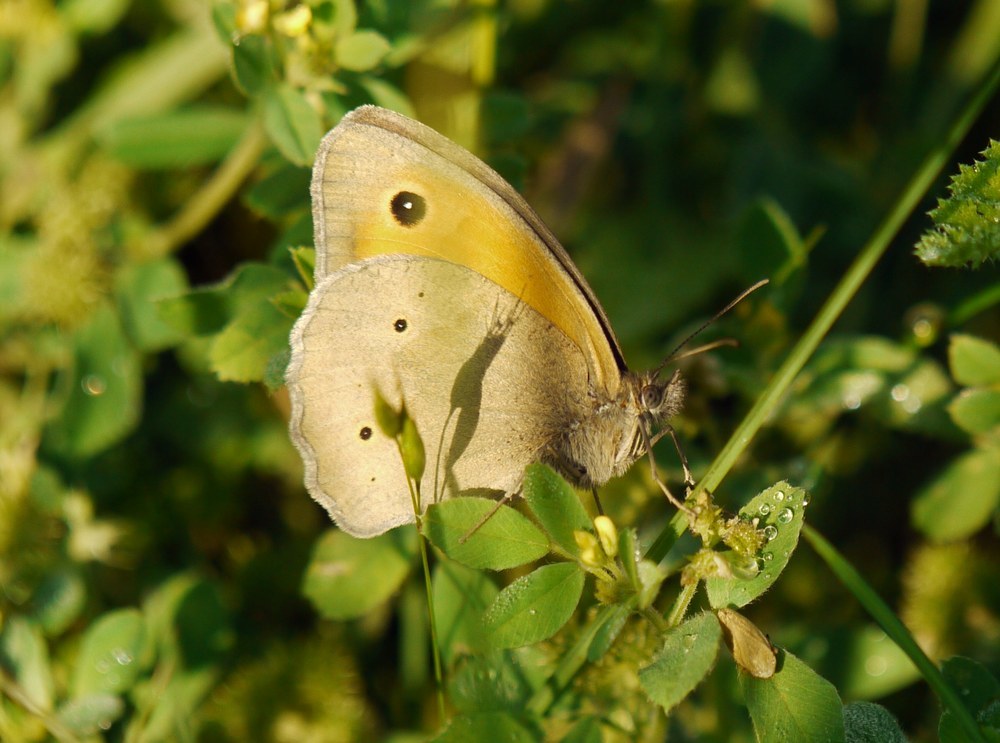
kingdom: Animalia
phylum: Arthropoda
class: Insecta
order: Lepidoptera
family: Nymphalidae
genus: Maniola
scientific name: Maniola jurtina
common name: Meadow brown
